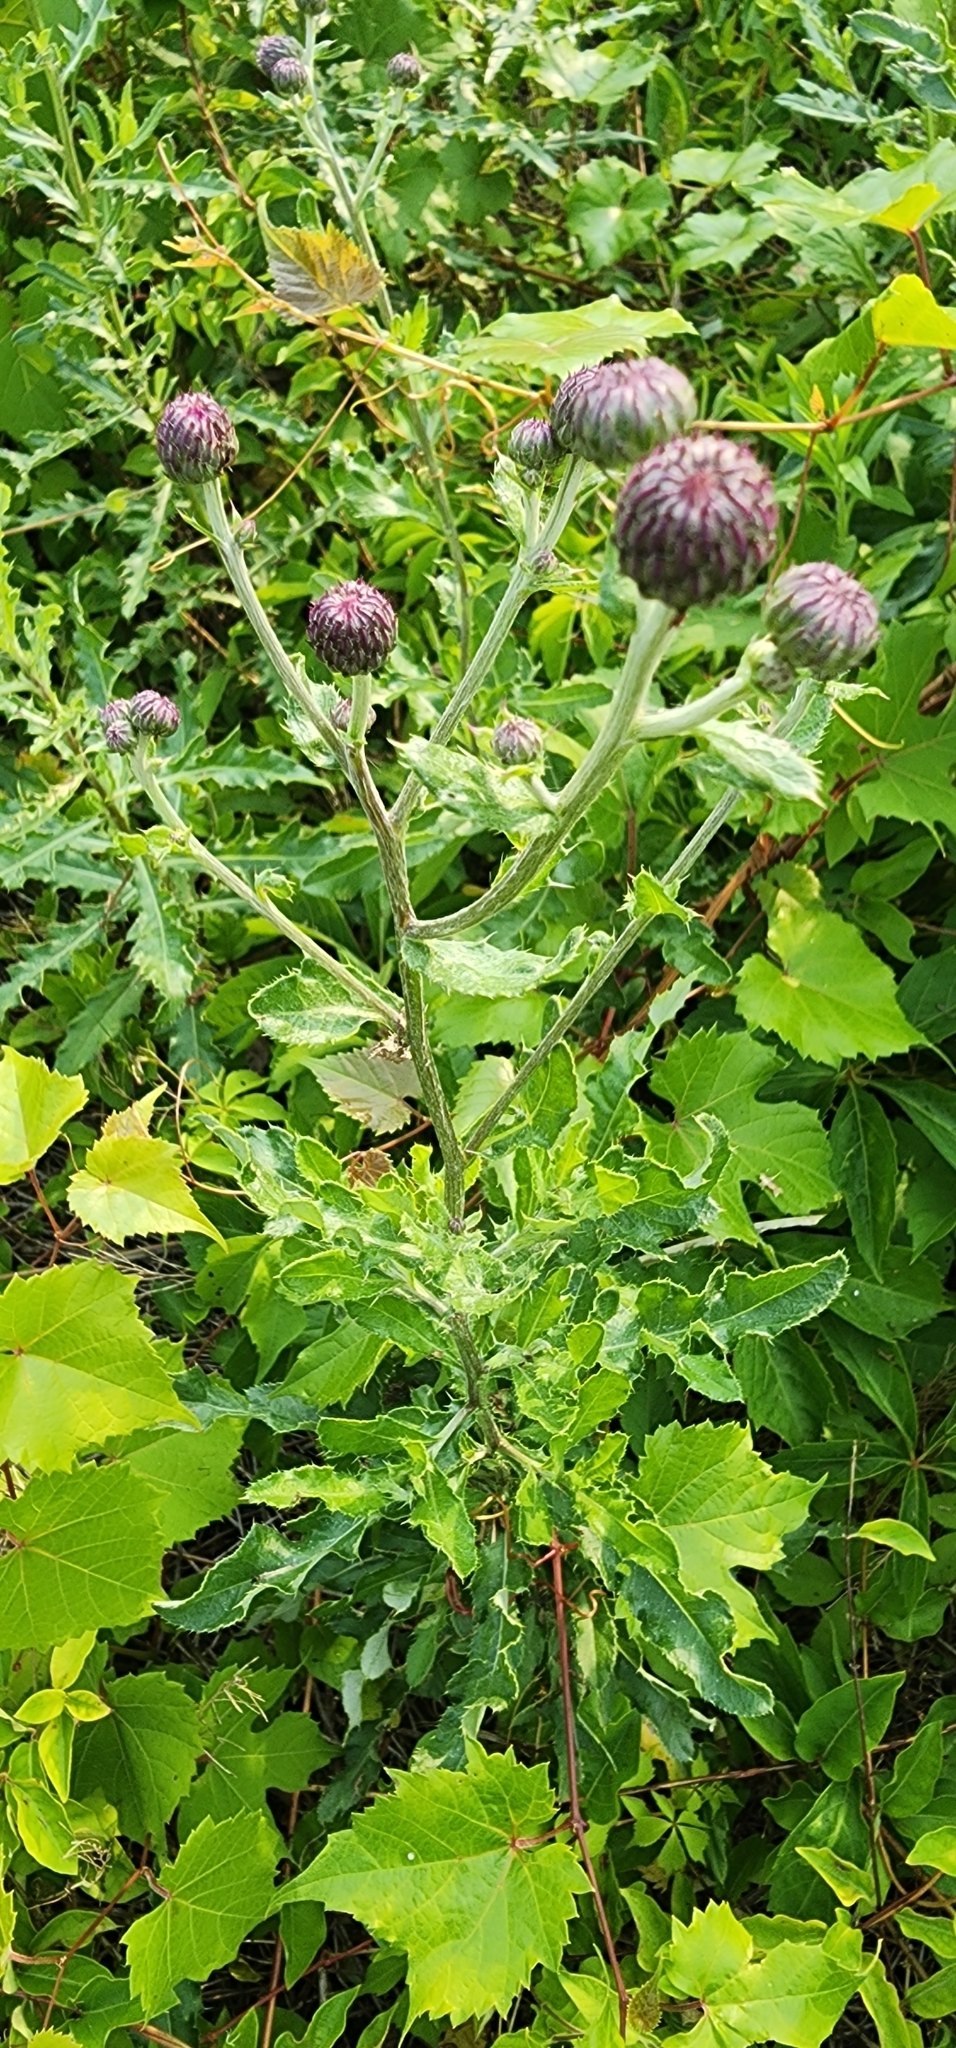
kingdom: Plantae
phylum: Tracheophyta
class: Magnoliopsida
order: Asterales
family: Asteraceae
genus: Cirsium
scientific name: Cirsium arvense
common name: Creeping thistle
